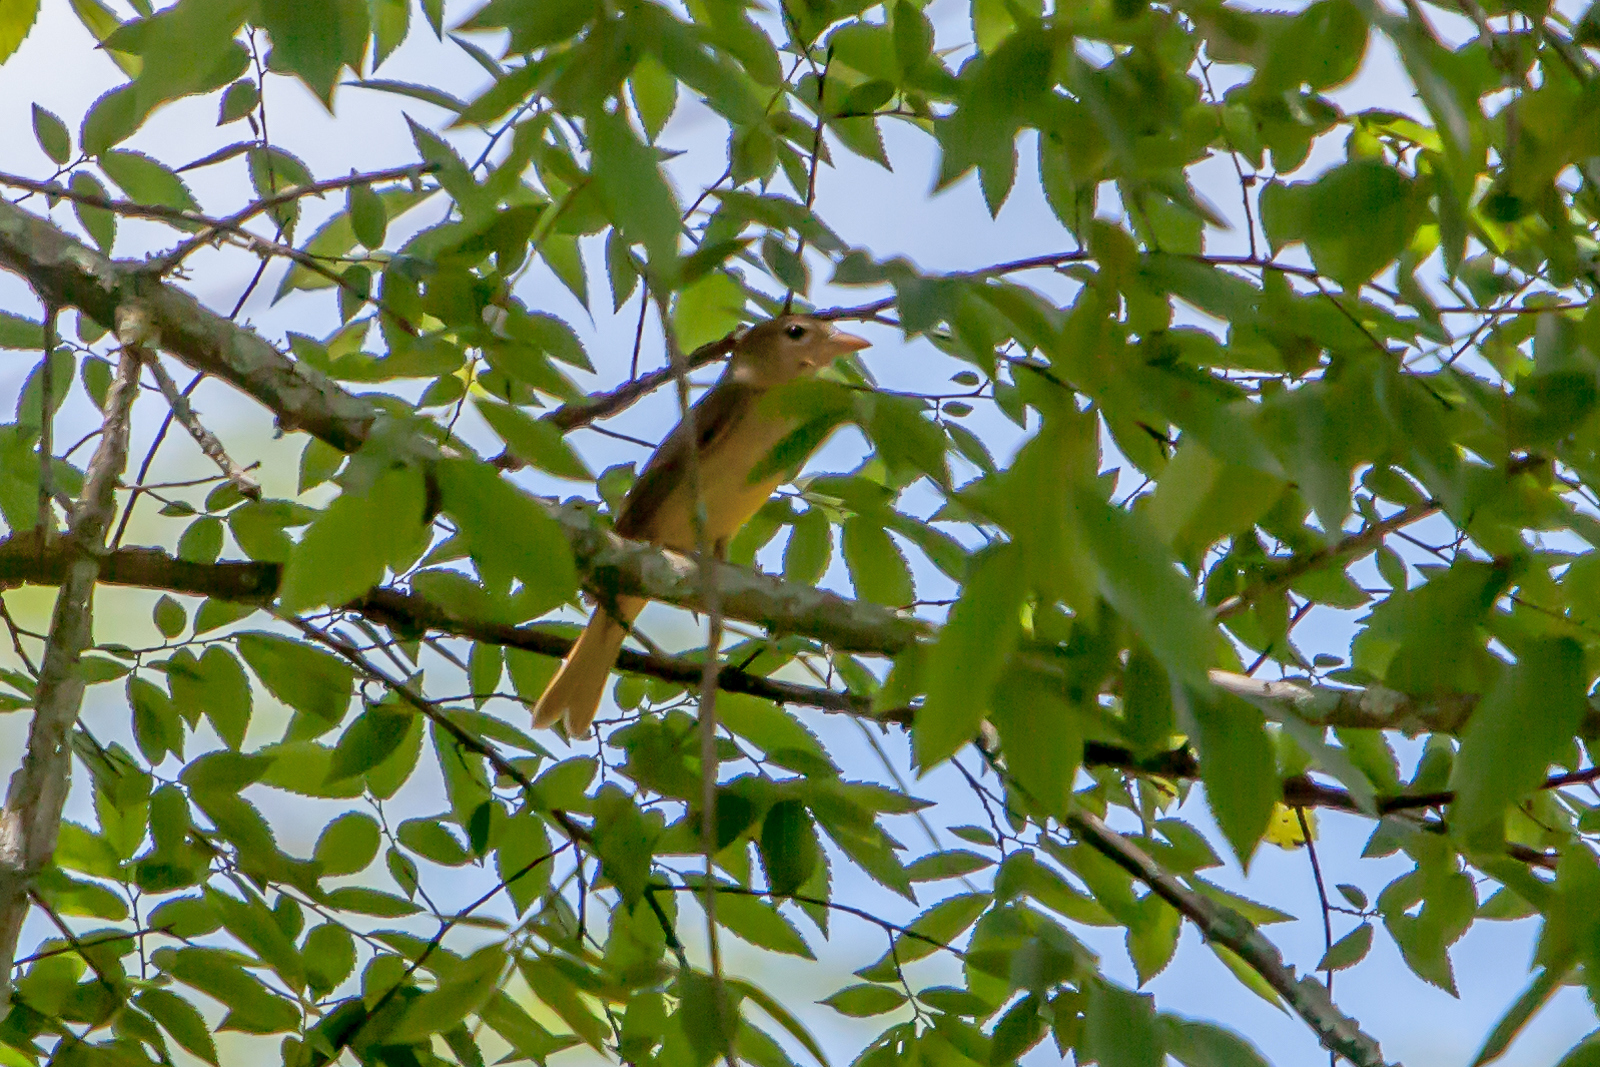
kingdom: Animalia
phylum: Chordata
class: Aves
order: Passeriformes
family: Cardinalidae
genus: Piranga
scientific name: Piranga rubra
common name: Summer tanager
